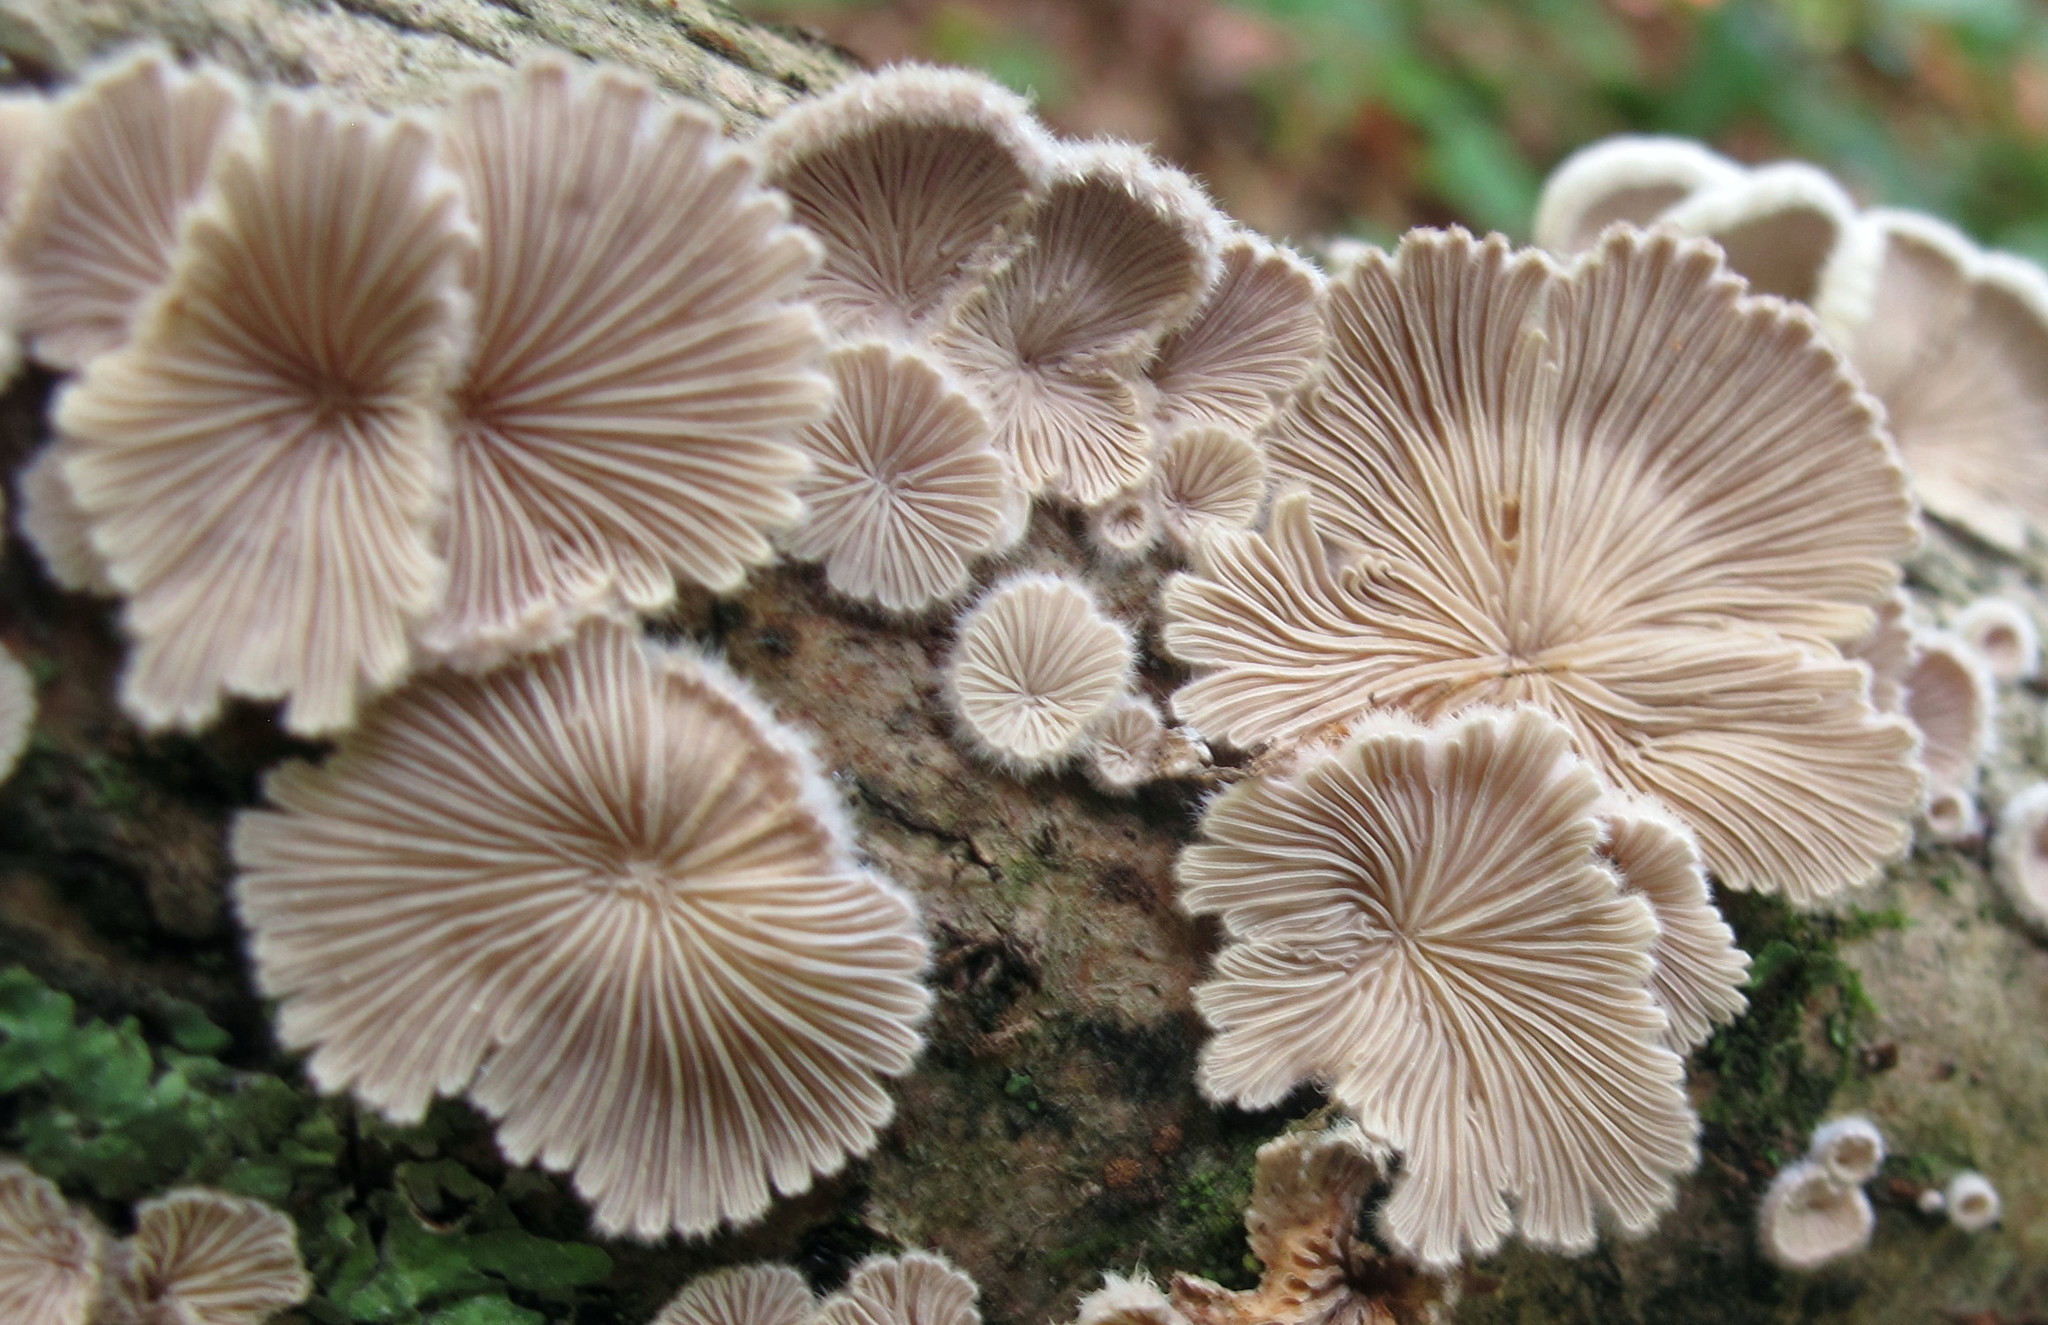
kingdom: Fungi
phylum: Basidiomycota
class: Agaricomycetes
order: Agaricales
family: Schizophyllaceae
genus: Schizophyllum
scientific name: Schizophyllum commune
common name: Common porecrust
